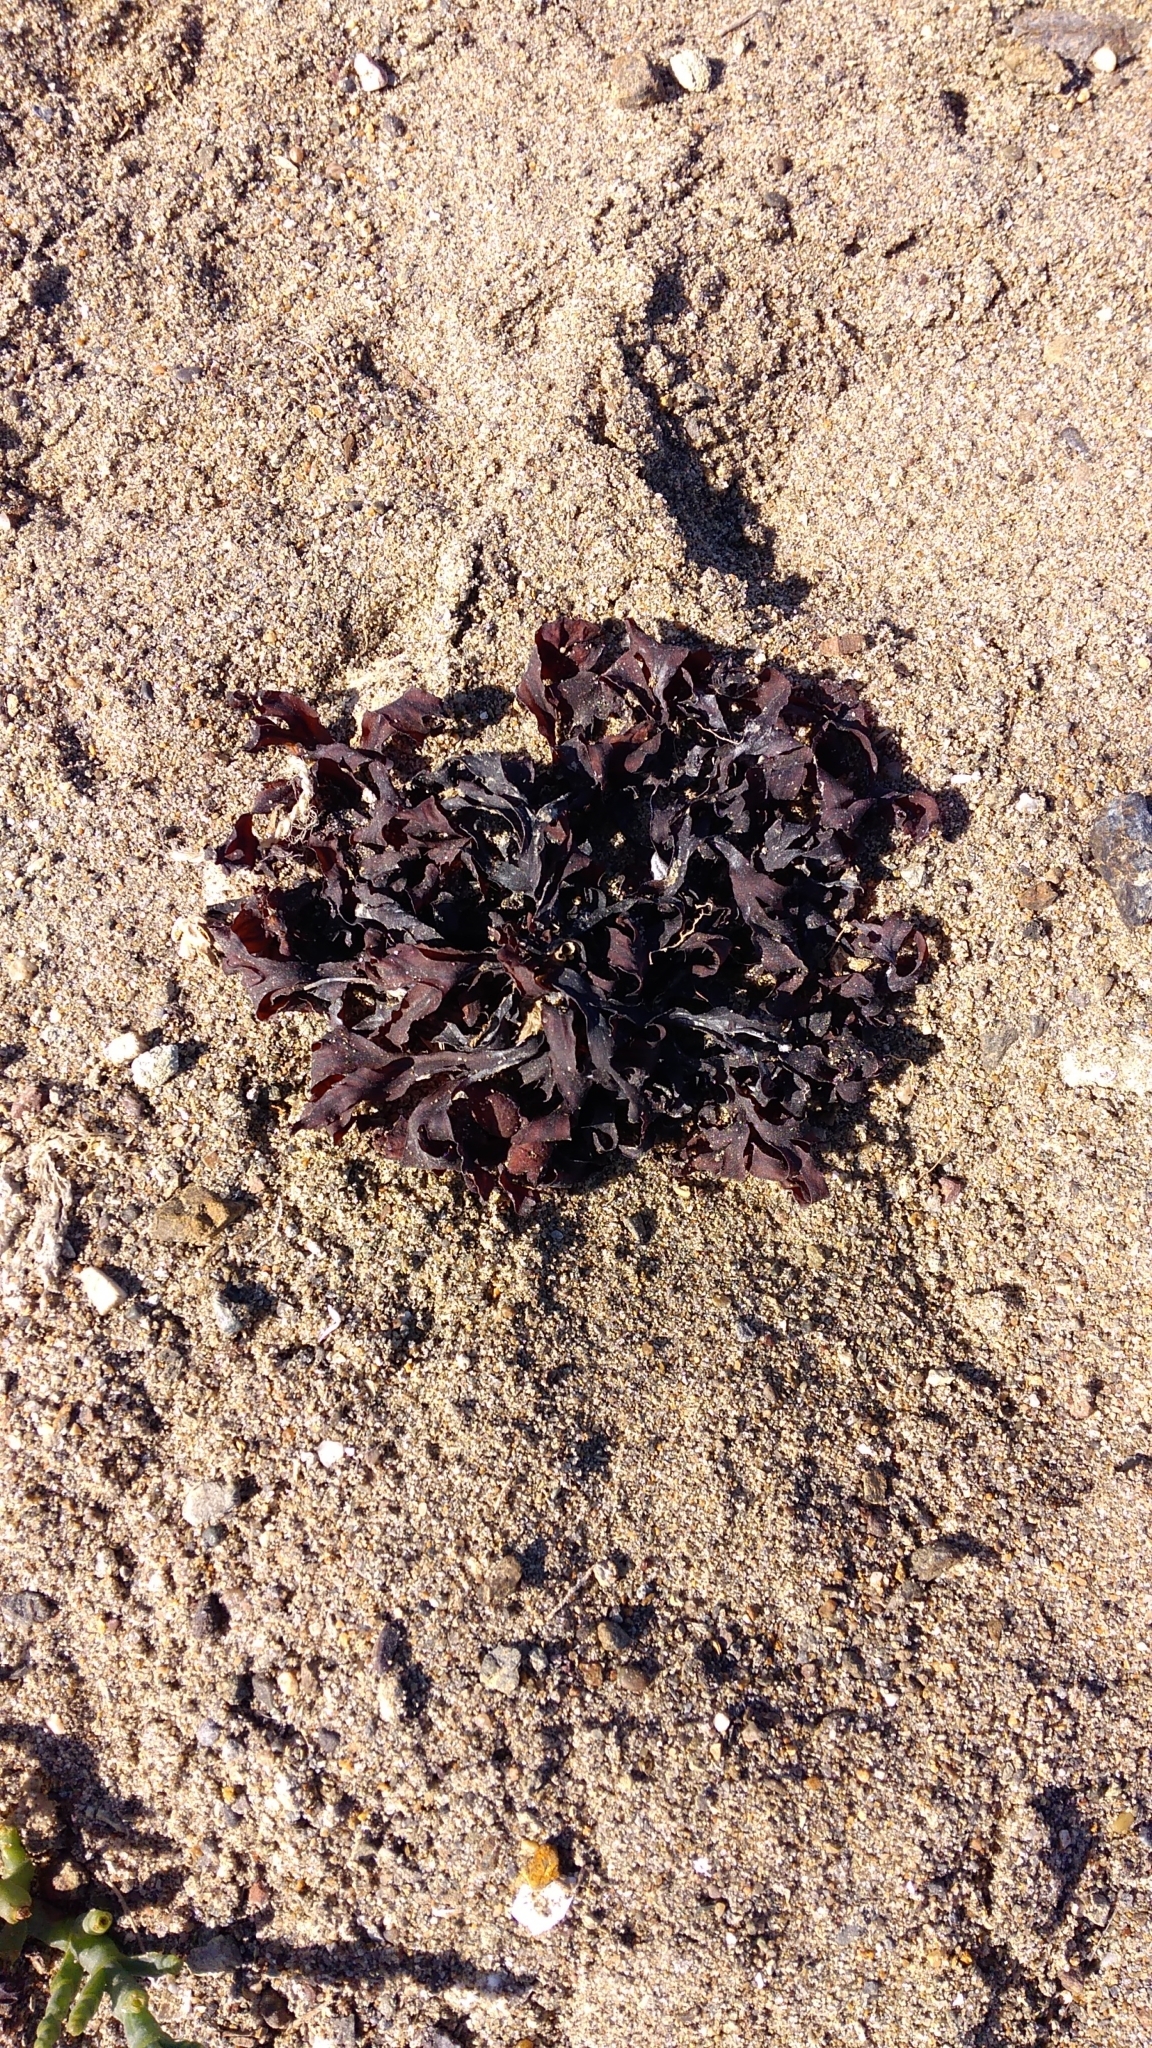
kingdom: Chromista
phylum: Ochrophyta
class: Phaeophyceae
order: Fucales
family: Fucaceae
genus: Fucus
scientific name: Fucus distichus
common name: Rockweed
